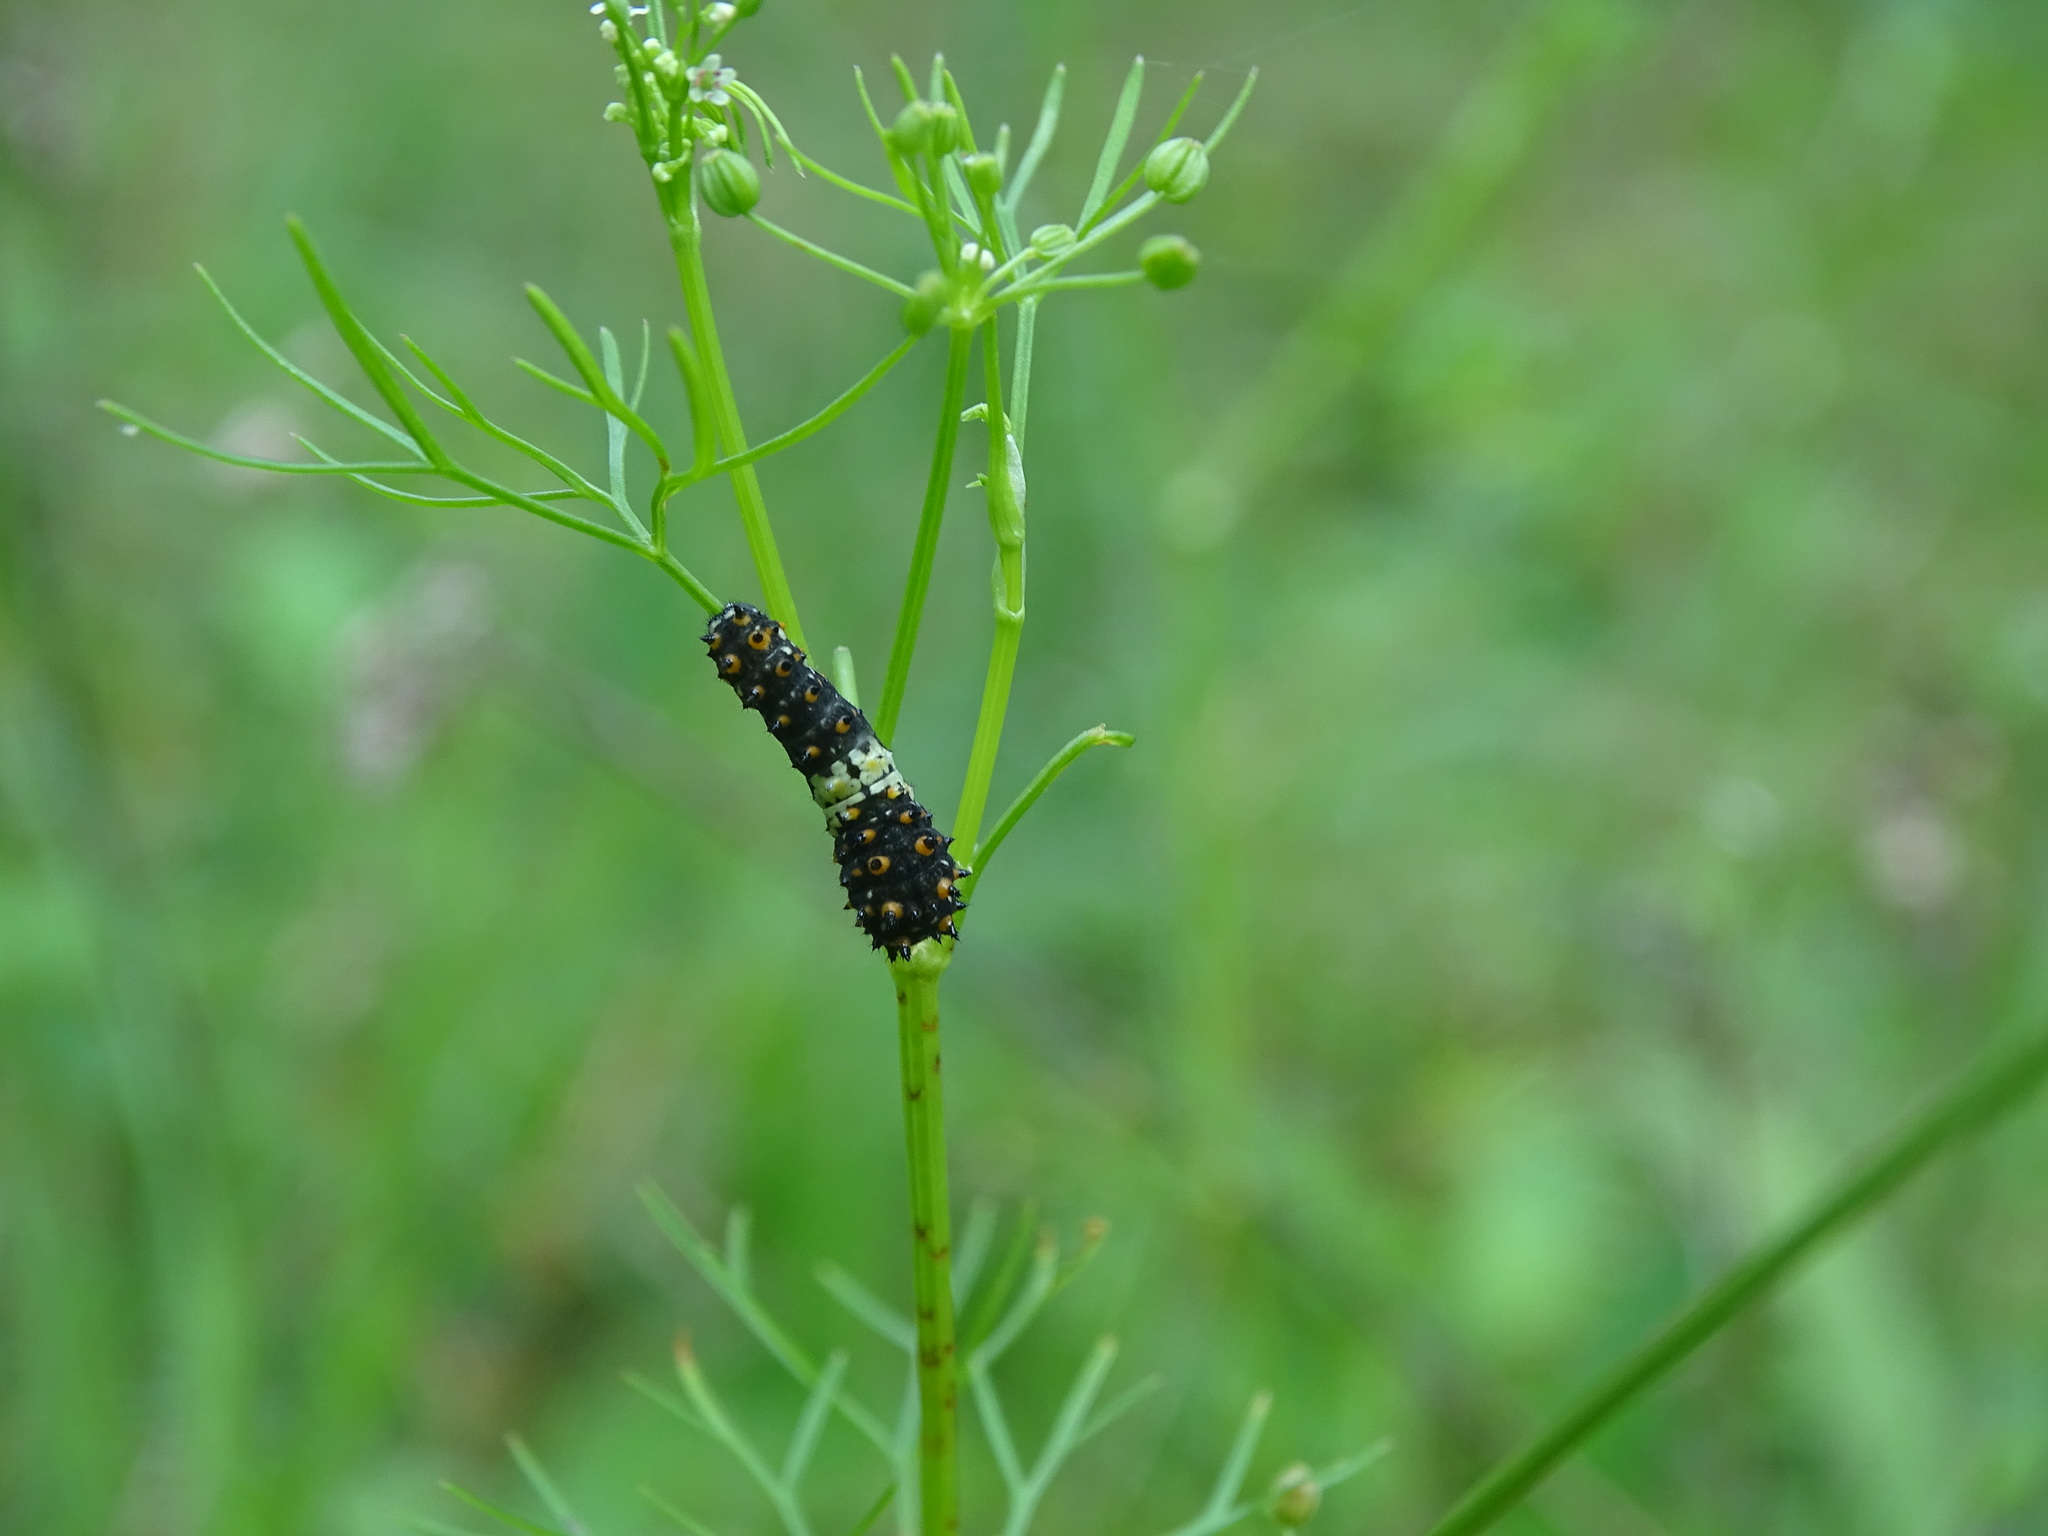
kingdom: Animalia
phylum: Arthropoda
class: Insecta
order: Lepidoptera
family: Papilionidae
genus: Papilio
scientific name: Papilio polyxenes
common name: Black swallowtail
